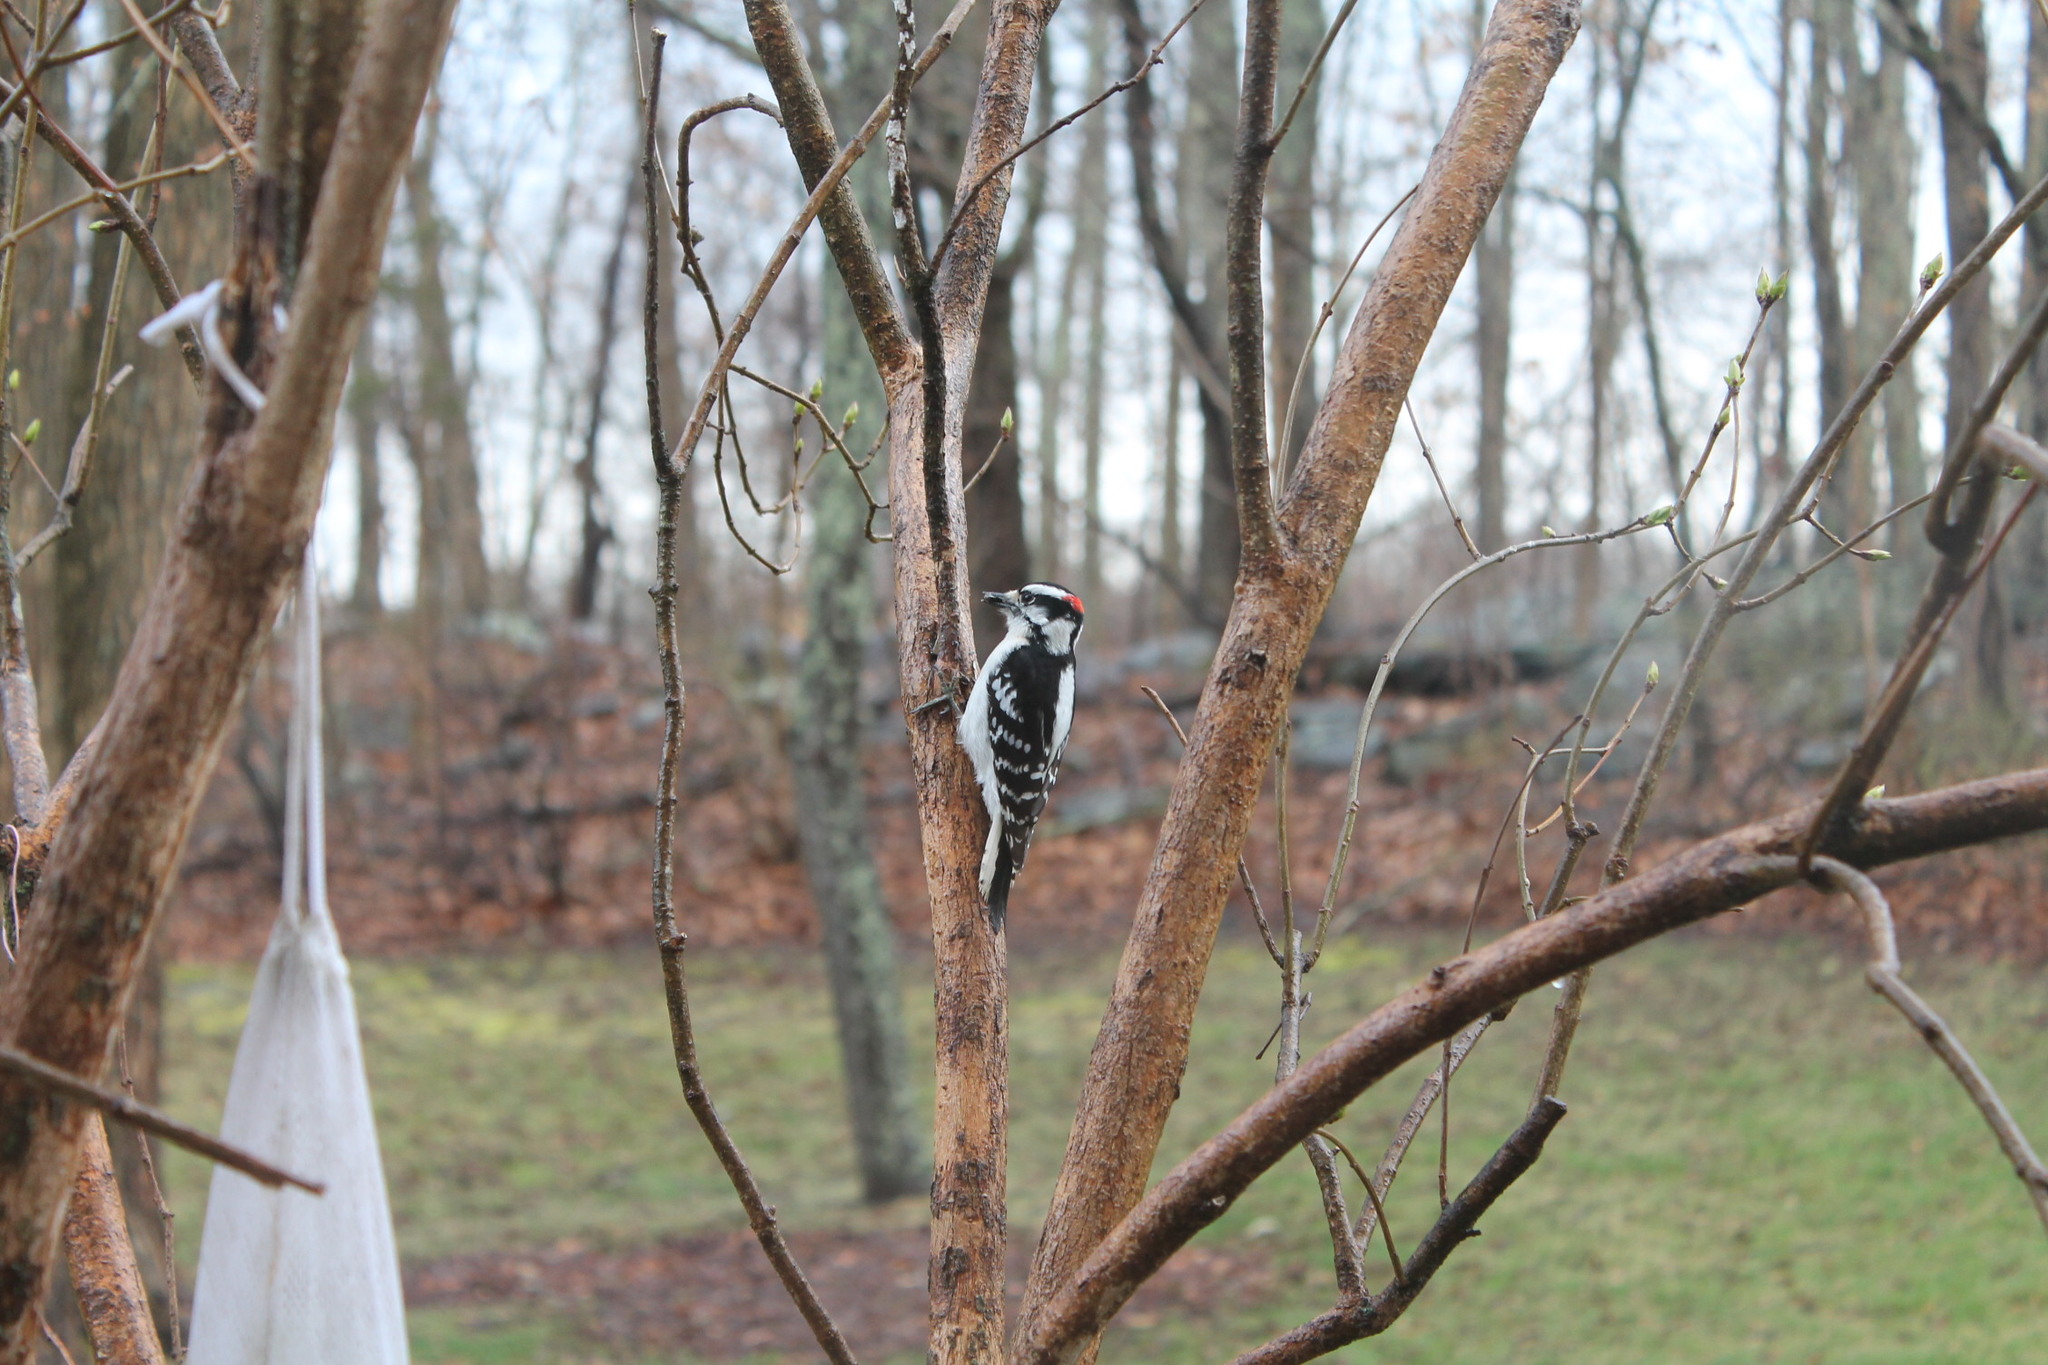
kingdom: Animalia
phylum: Chordata
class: Aves
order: Piciformes
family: Picidae
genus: Dryobates
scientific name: Dryobates pubescens
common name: Downy woodpecker
